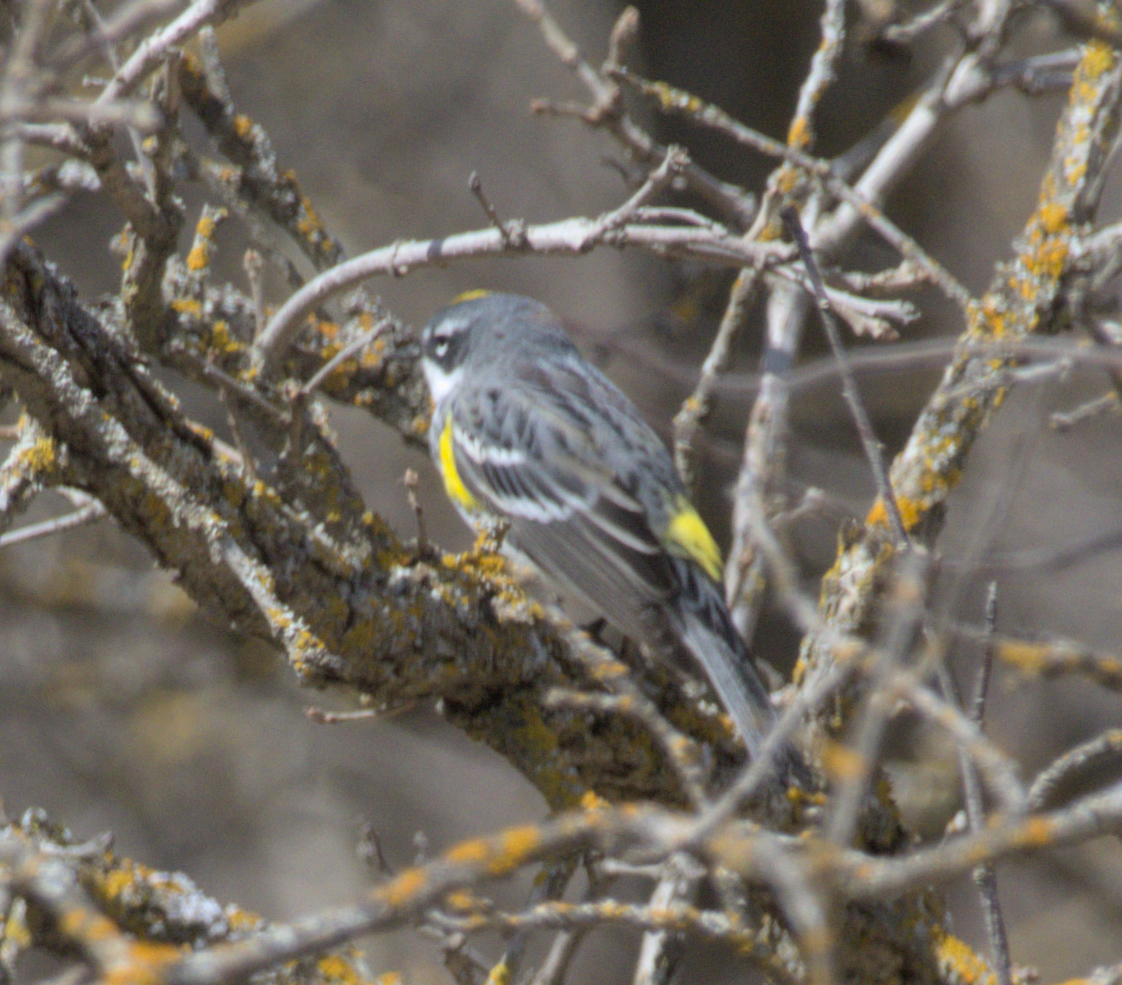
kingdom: Animalia
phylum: Chordata
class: Aves
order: Passeriformes
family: Parulidae
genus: Setophaga
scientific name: Setophaga coronata
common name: Myrtle warbler
